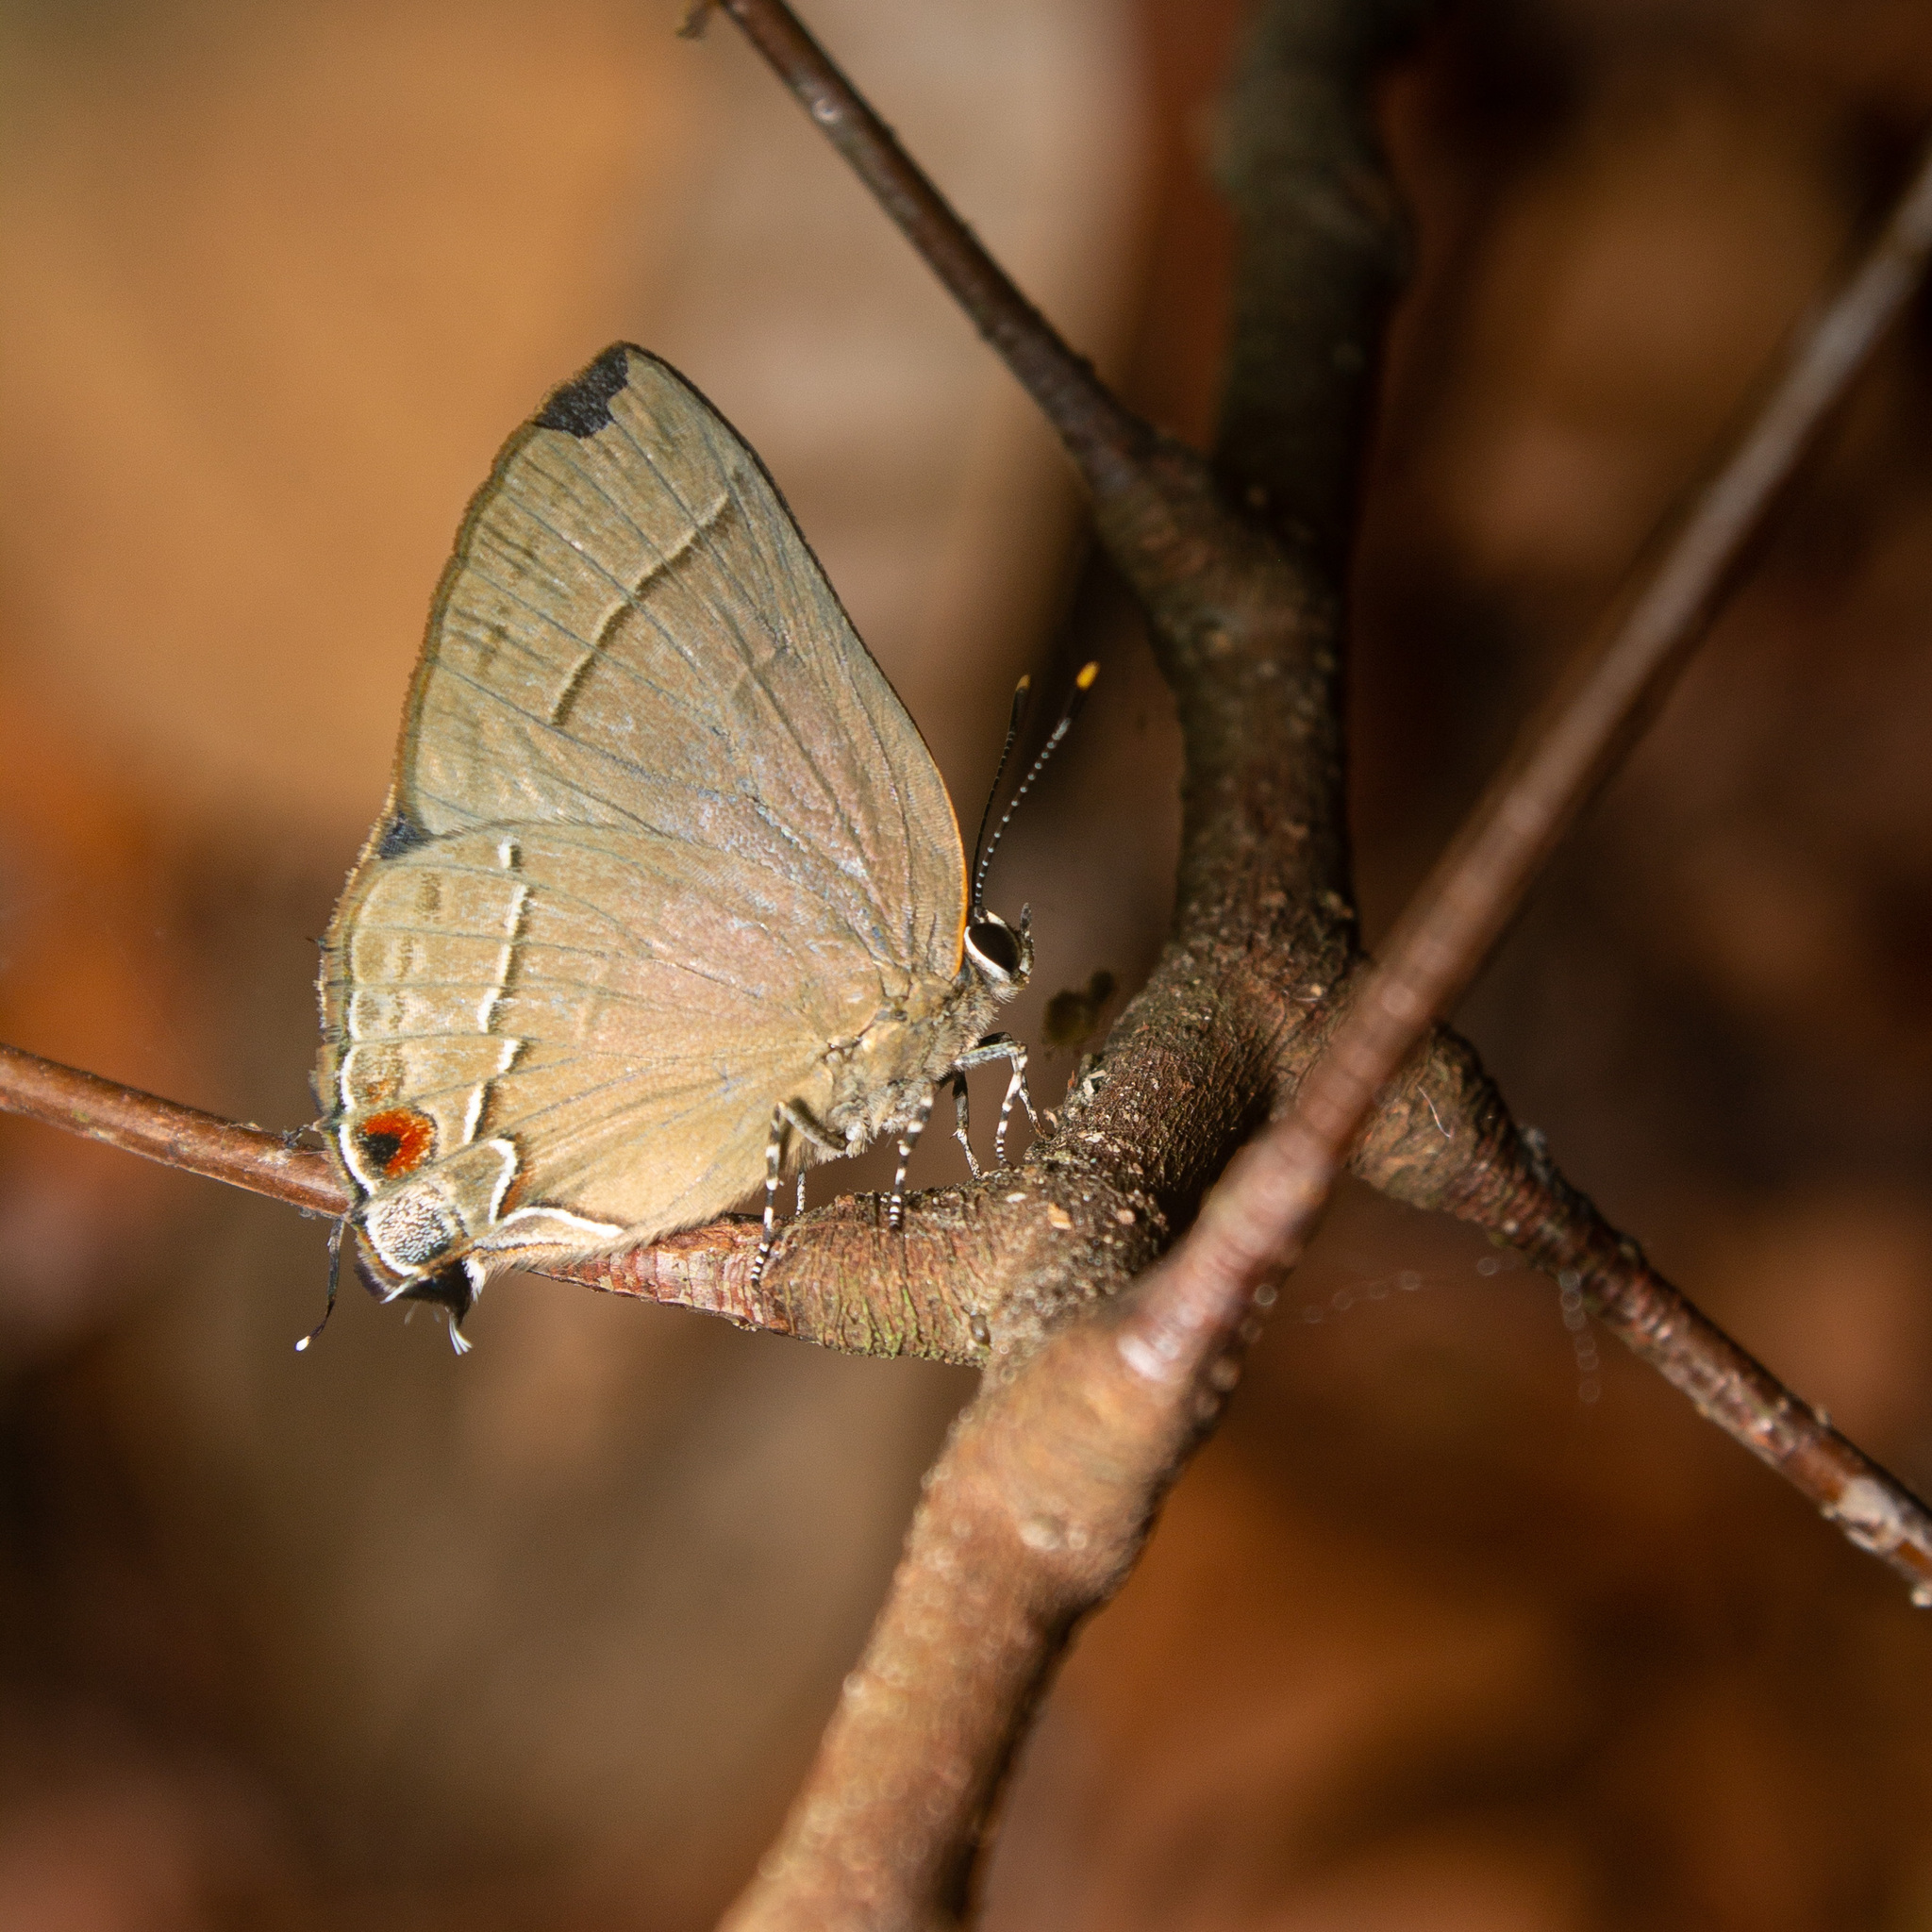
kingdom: Animalia
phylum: Arthropoda
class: Insecta
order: Lepidoptera
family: Lycaenidae
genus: Ziegleria
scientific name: Ziegleria hesperitis
